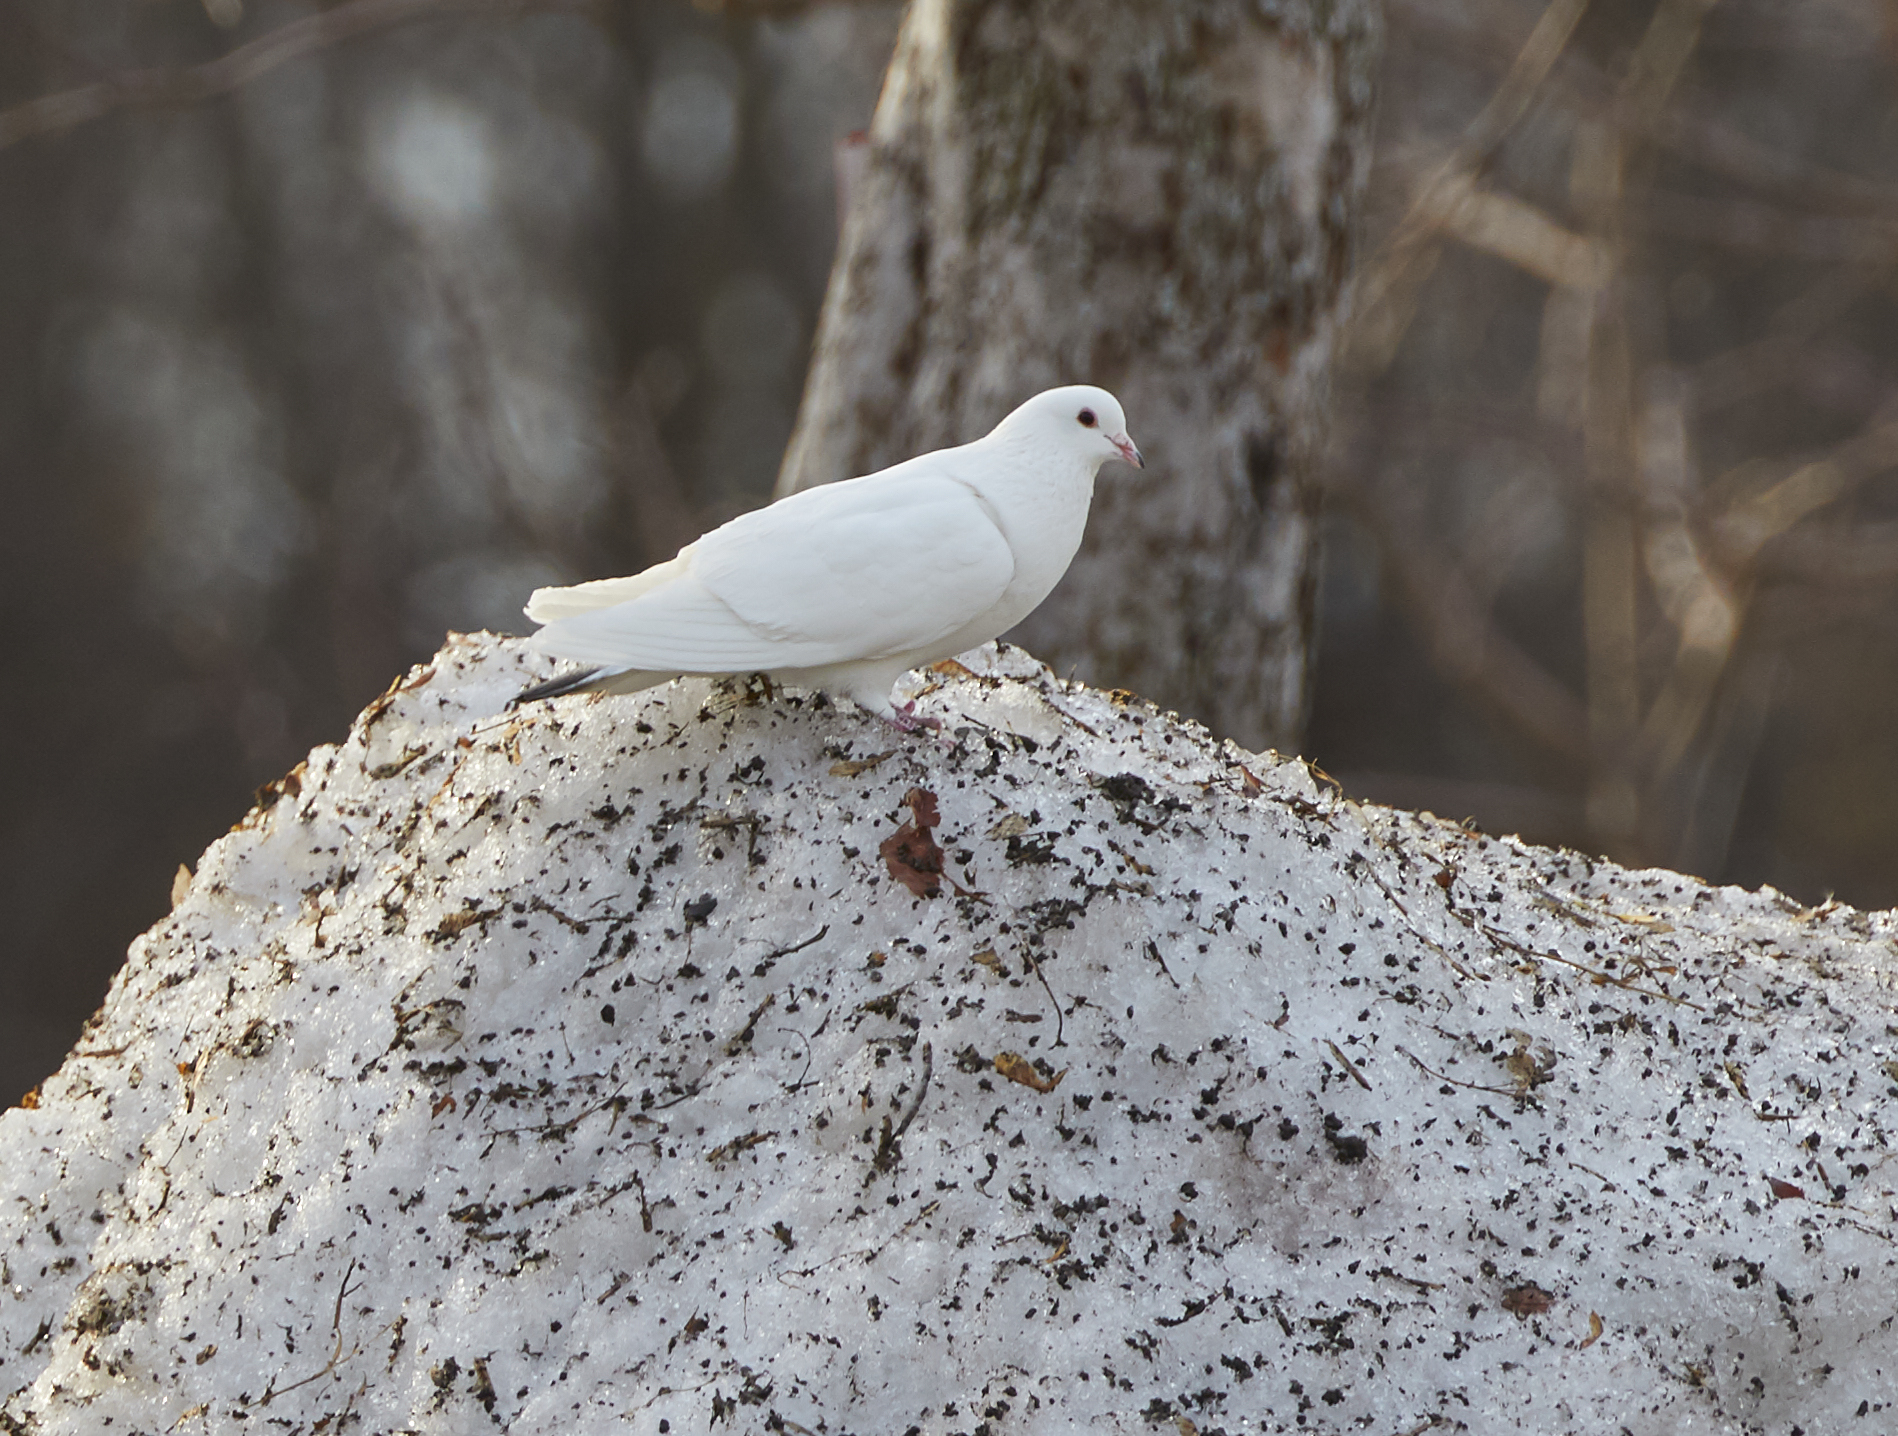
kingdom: Animalia
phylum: Chordata
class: Aves
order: Columbiformes
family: Columbidae
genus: Columba
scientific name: Columba livia
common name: Rock pigeon
